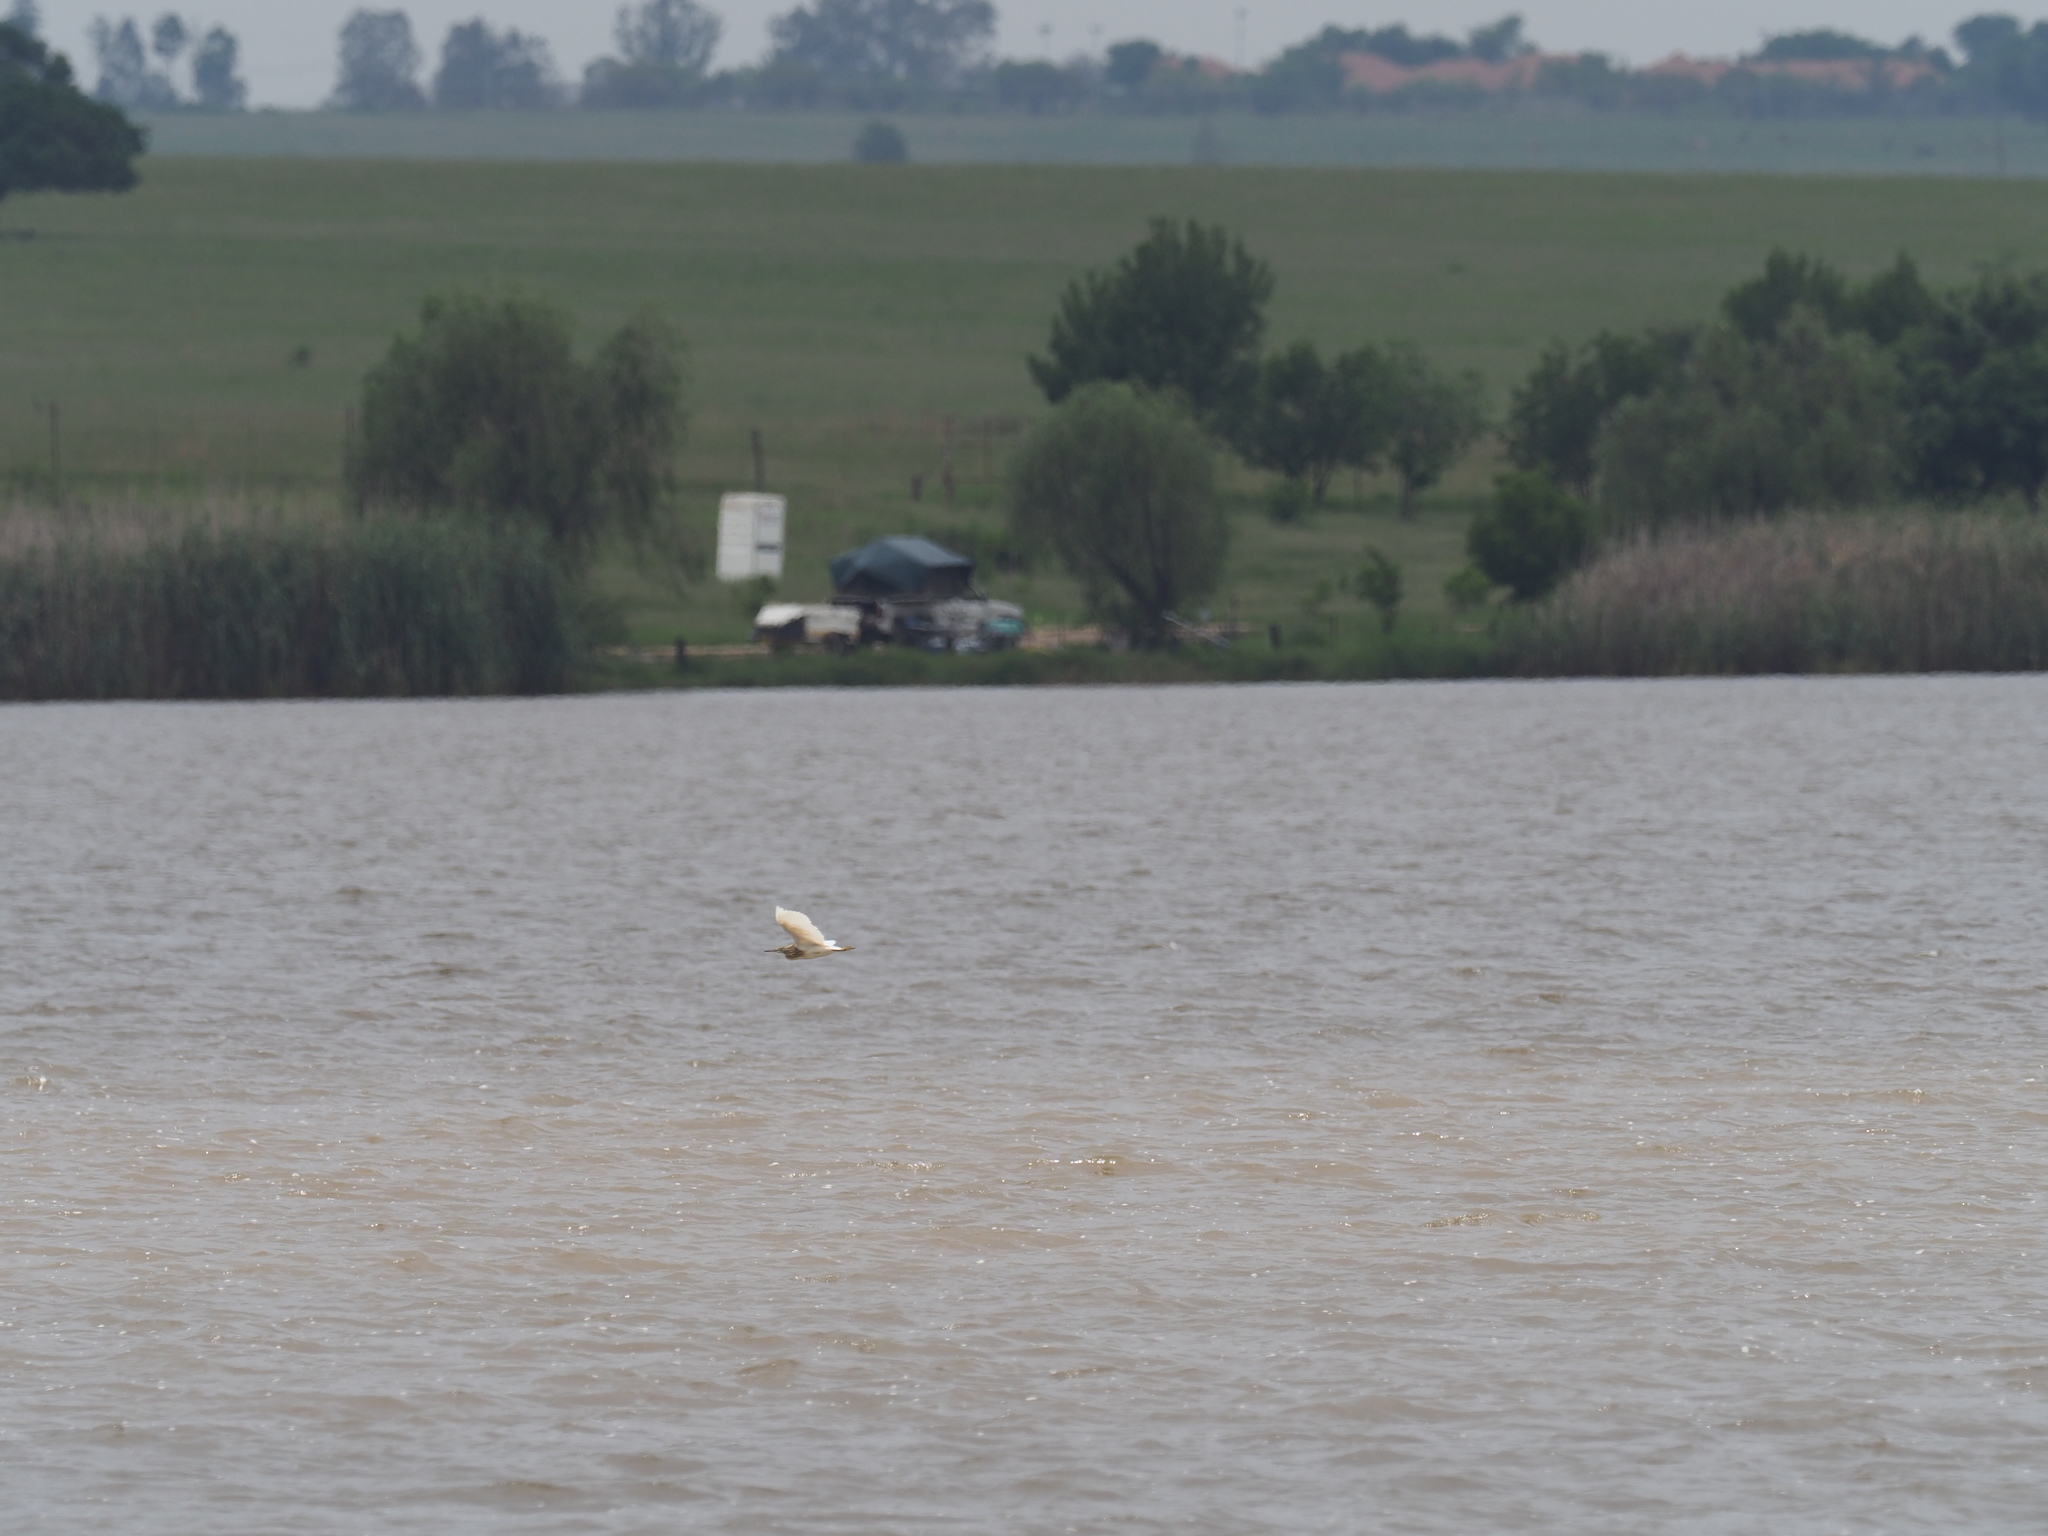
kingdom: Animalia
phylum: Chordata
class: Aves
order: Pelecaniformes
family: Ardeidae
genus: Ardeola
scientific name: Ardeola ralloides
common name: Squacco heron
